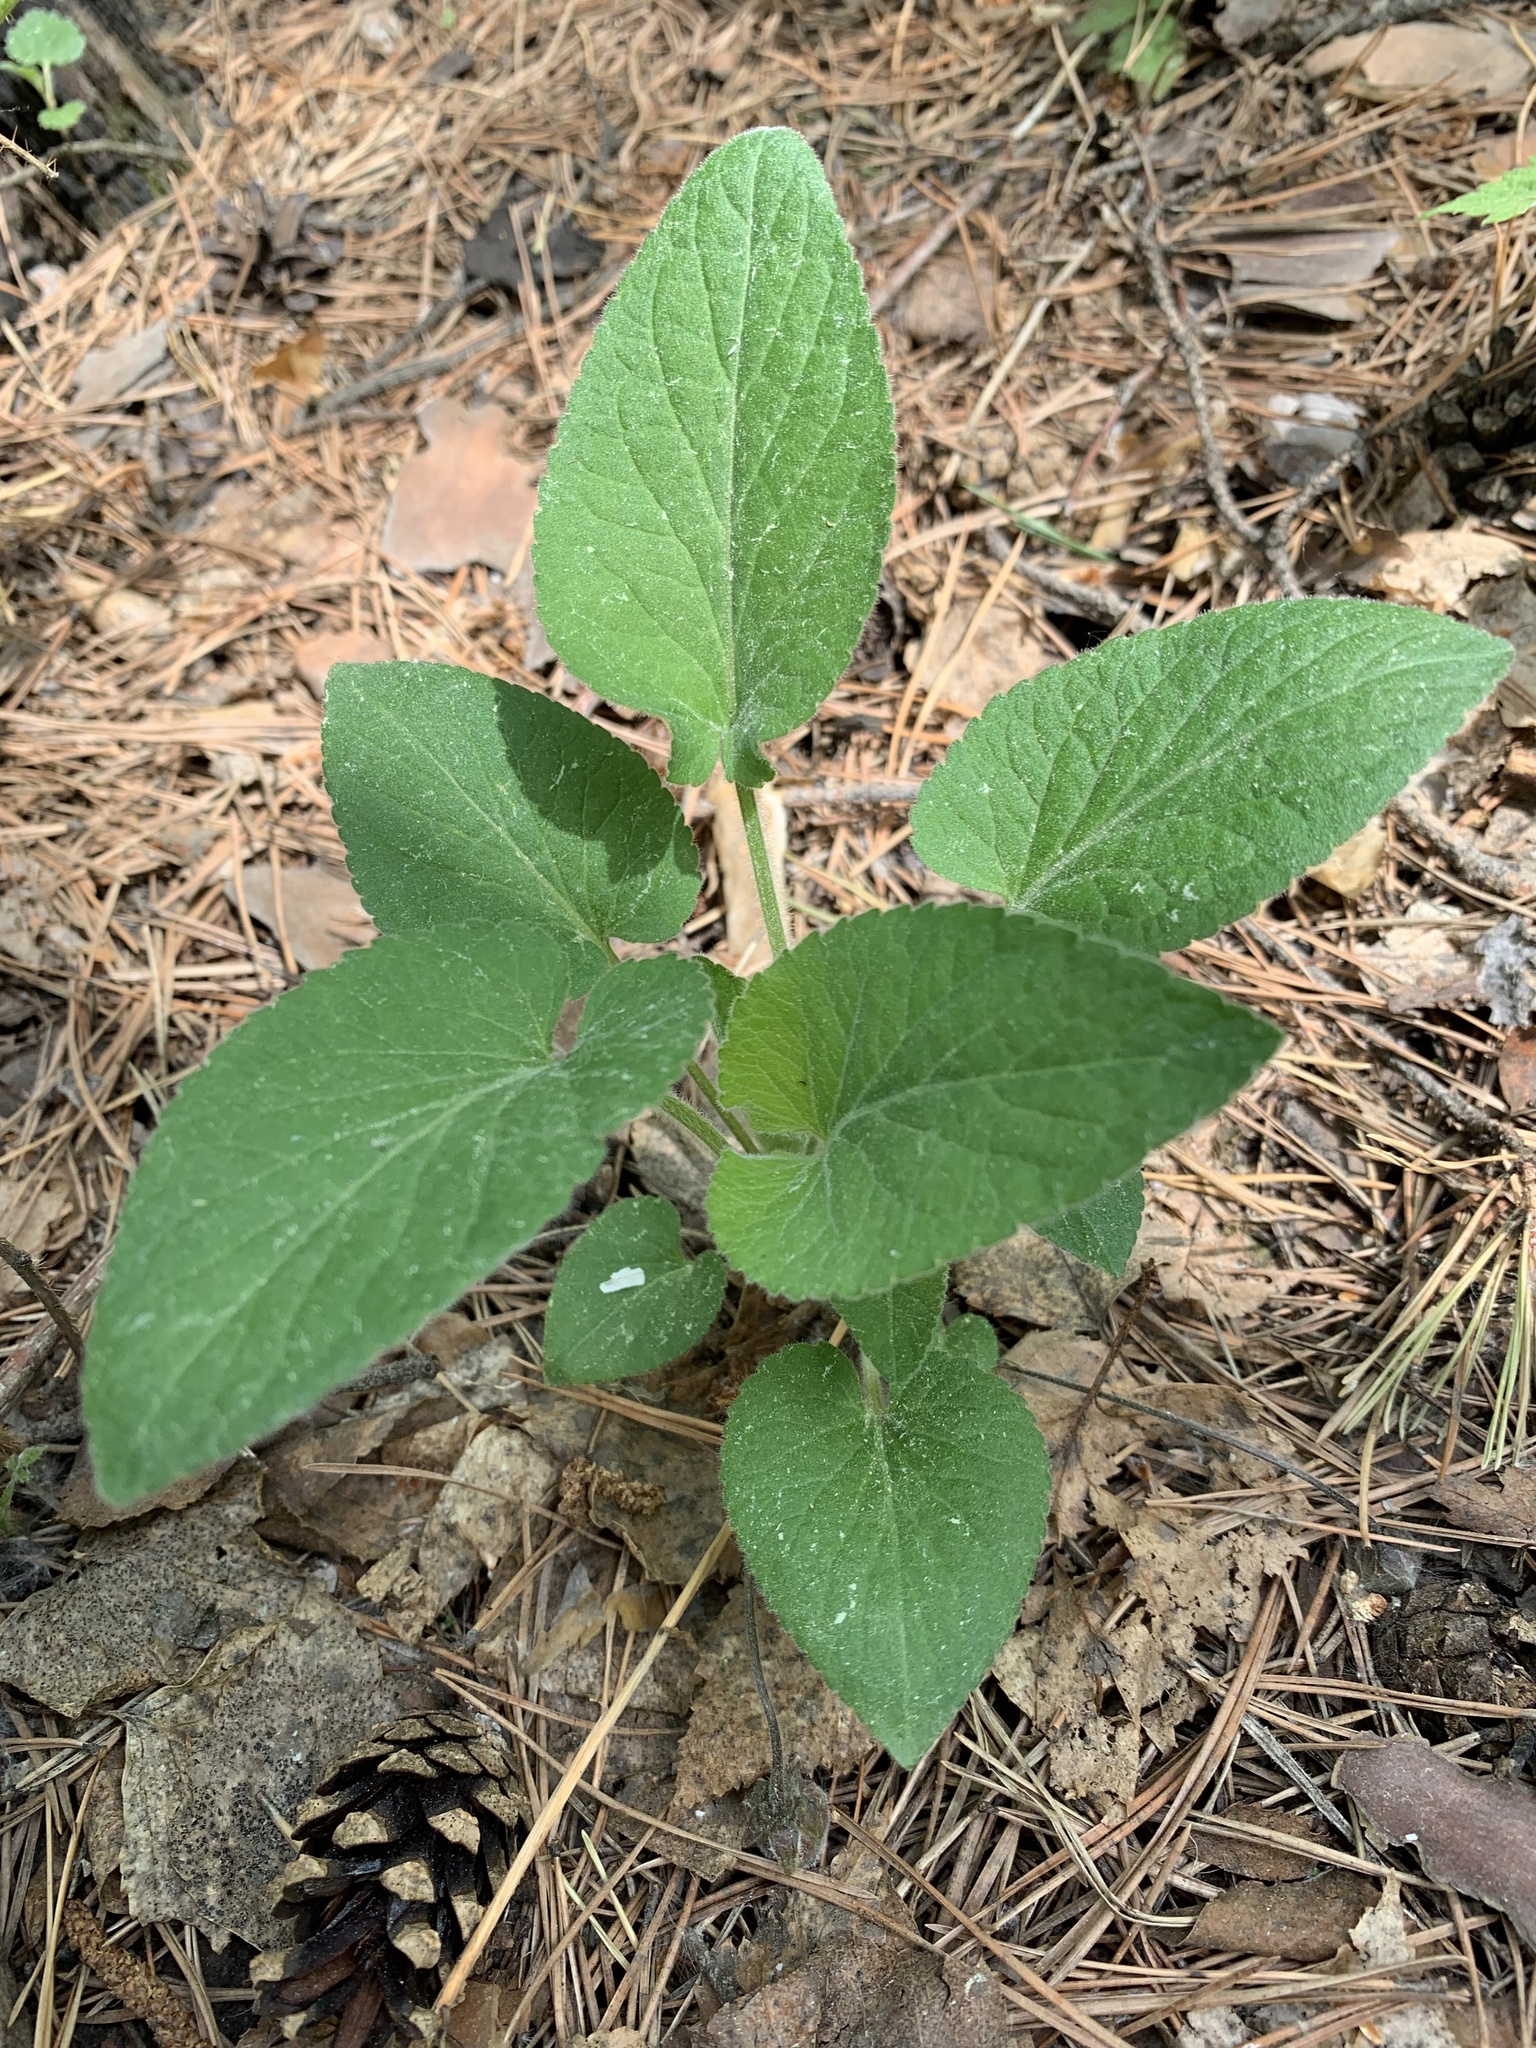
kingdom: Plantae
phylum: Tracheophyta
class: Magnoliopsida
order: Malpighiales
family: Violaceae
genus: Viola
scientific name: Viola hirta
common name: Hairy violet
